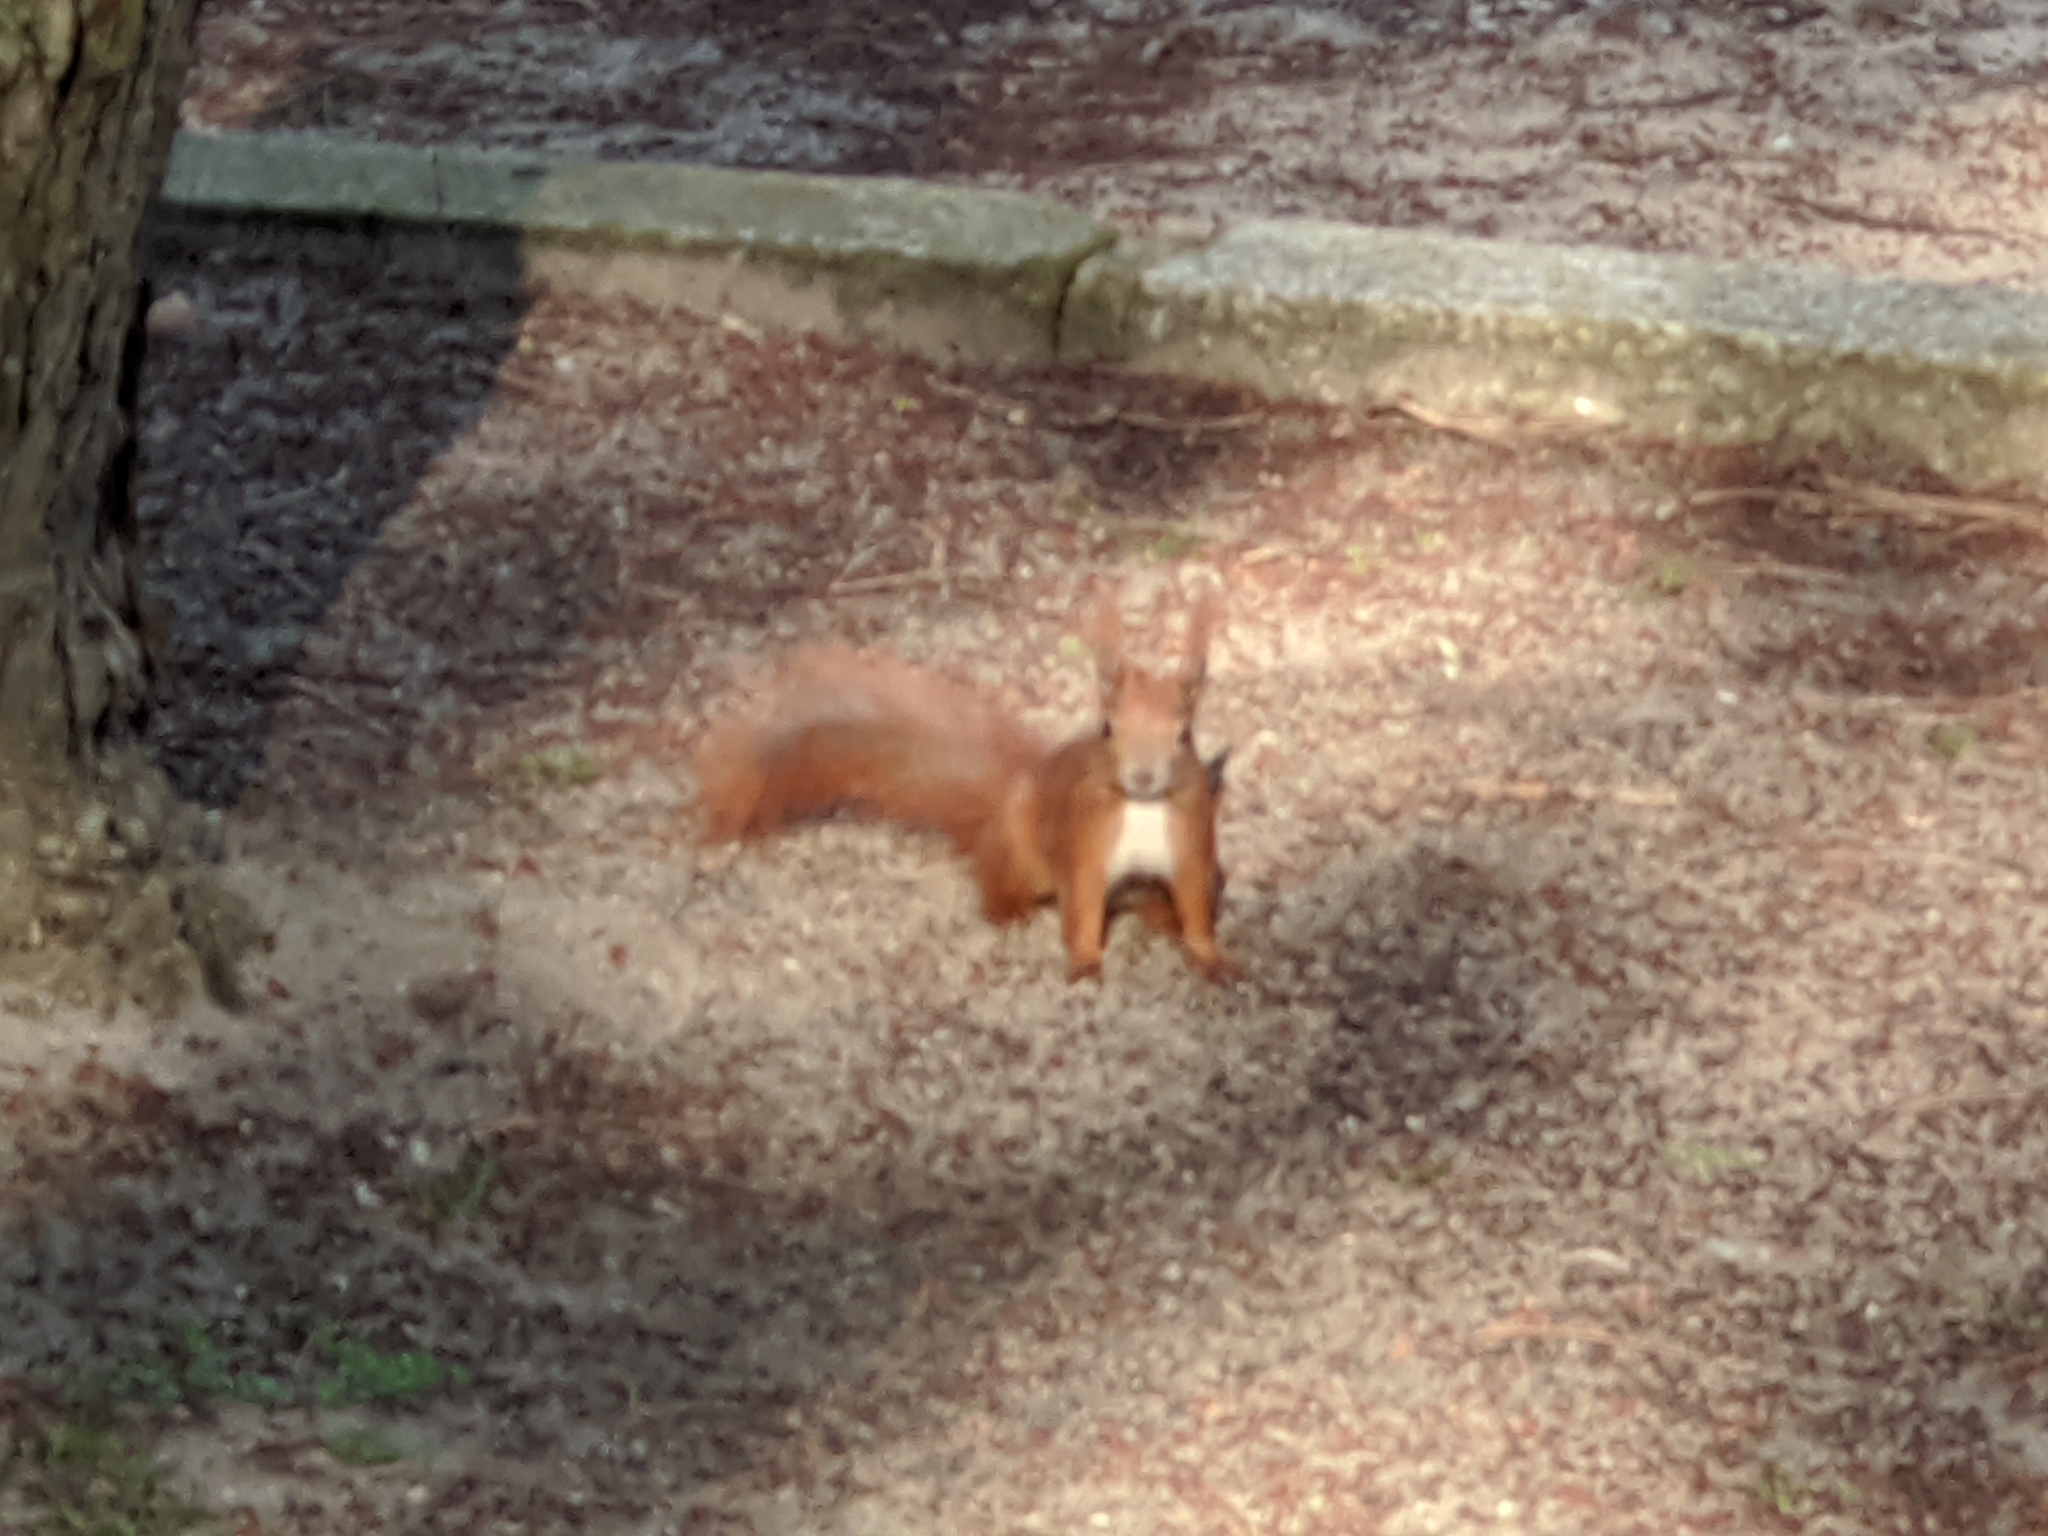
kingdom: Animalia
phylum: Chordata
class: Mammalia
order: Rodentia
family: Sciuridae
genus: Sciurus
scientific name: Sciurus vulgaris
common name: Eurasian red squirrel
